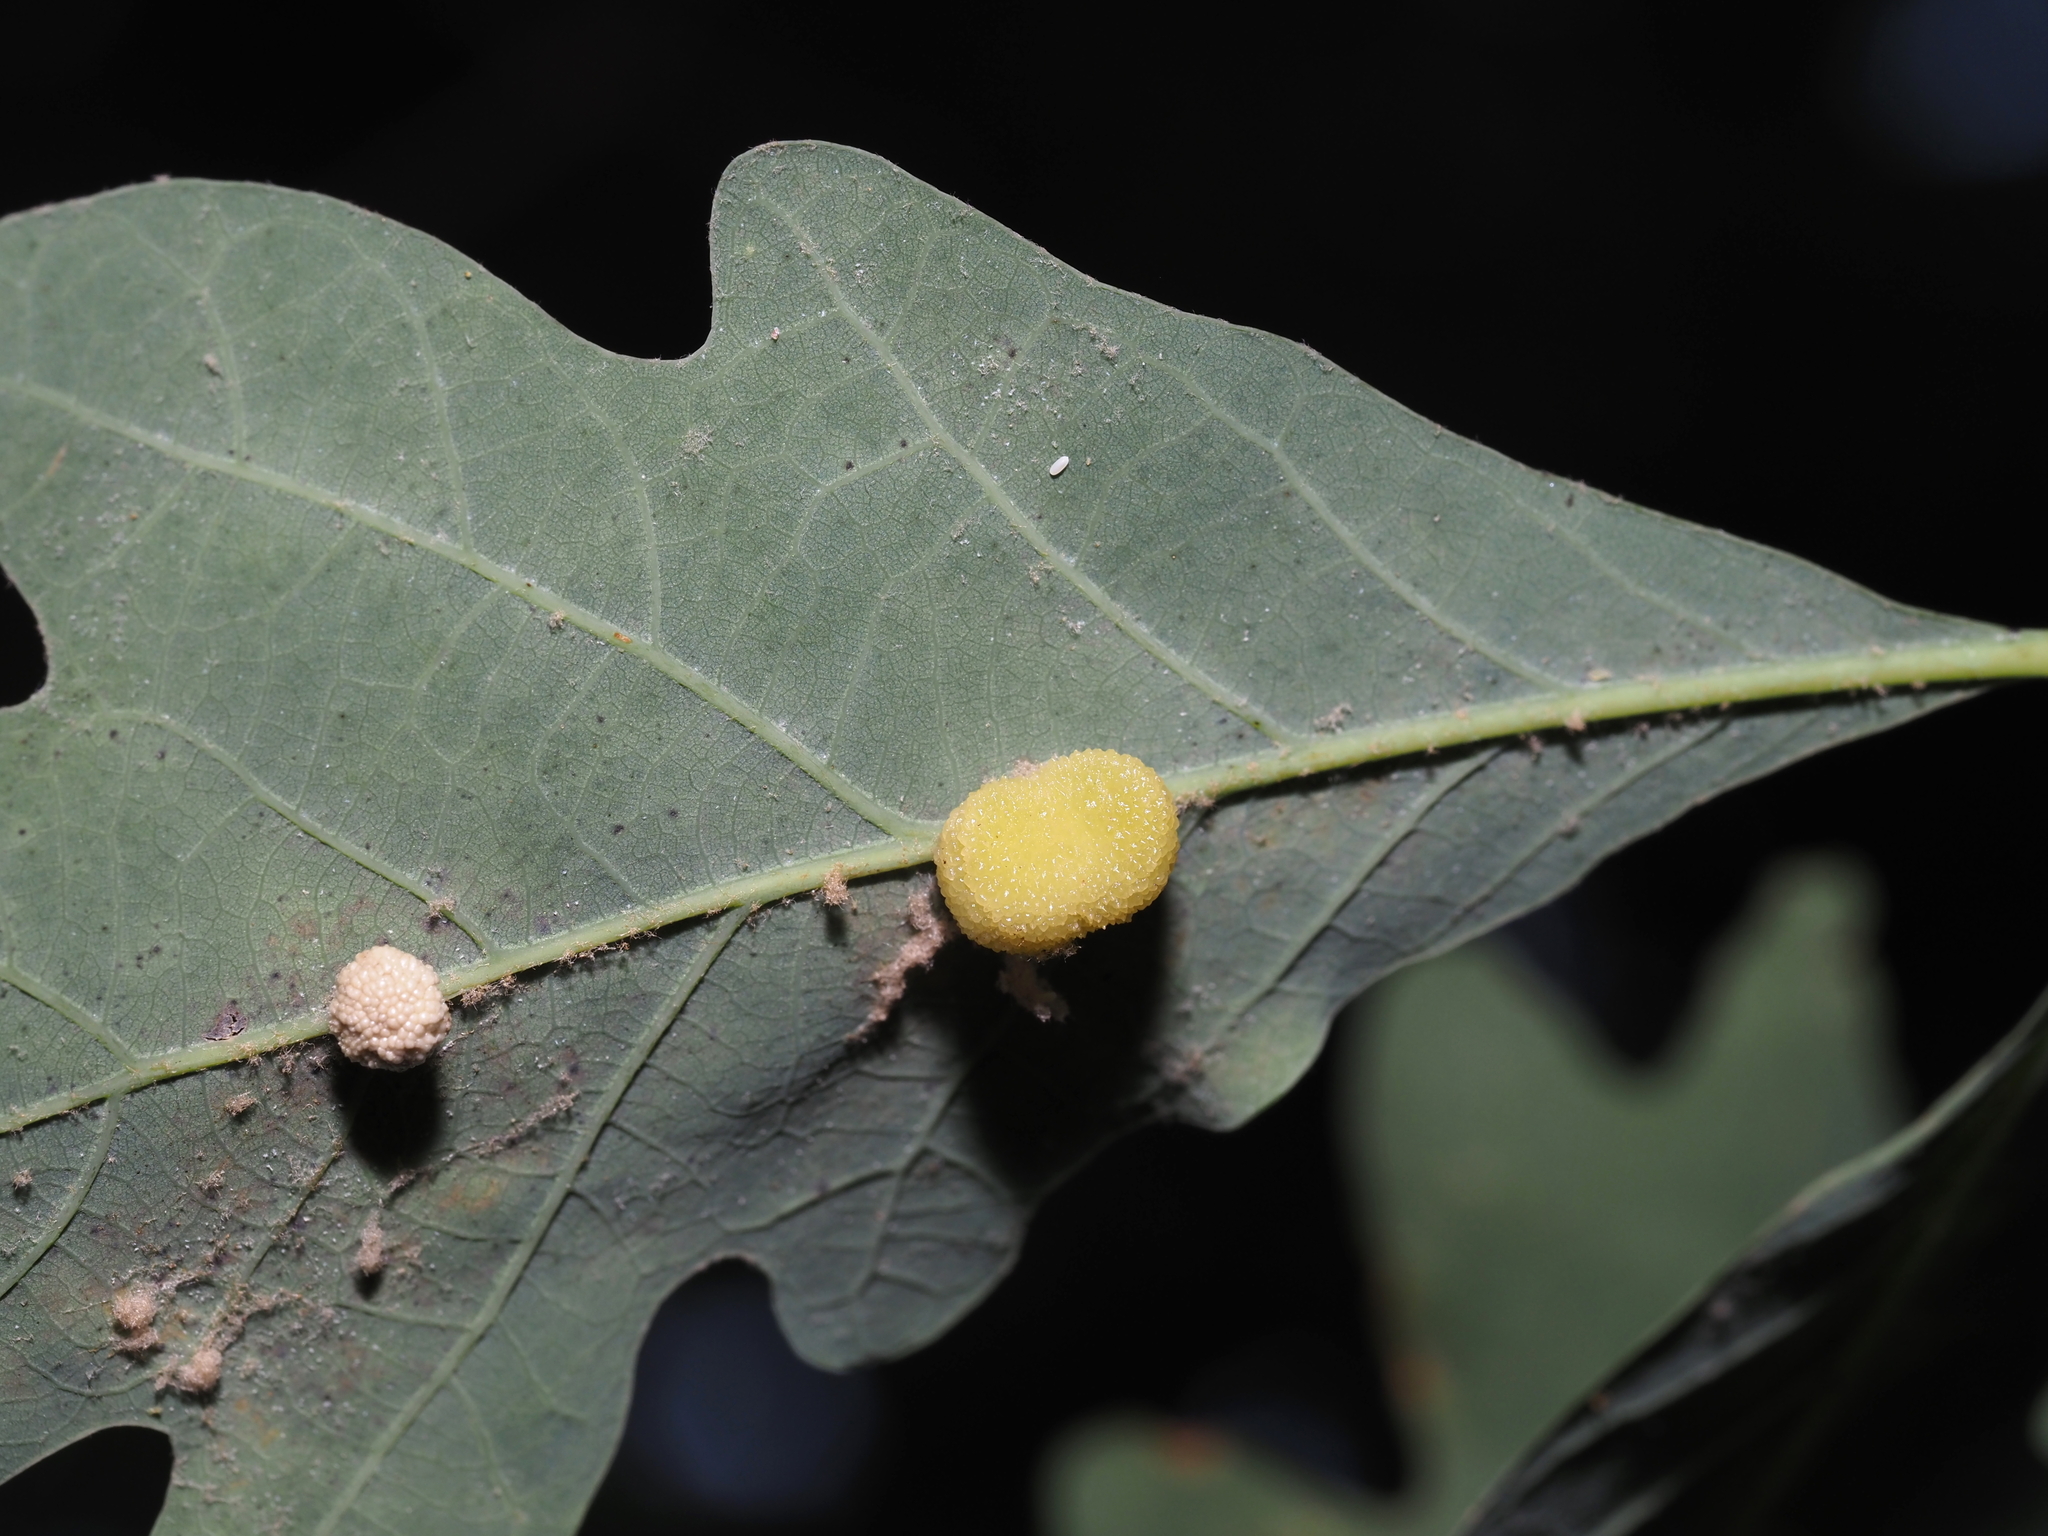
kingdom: Animalia
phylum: Arthropoda
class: Insecta
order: Hymenoptera
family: Cynipidae
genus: Acraspis
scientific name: Acraspis
